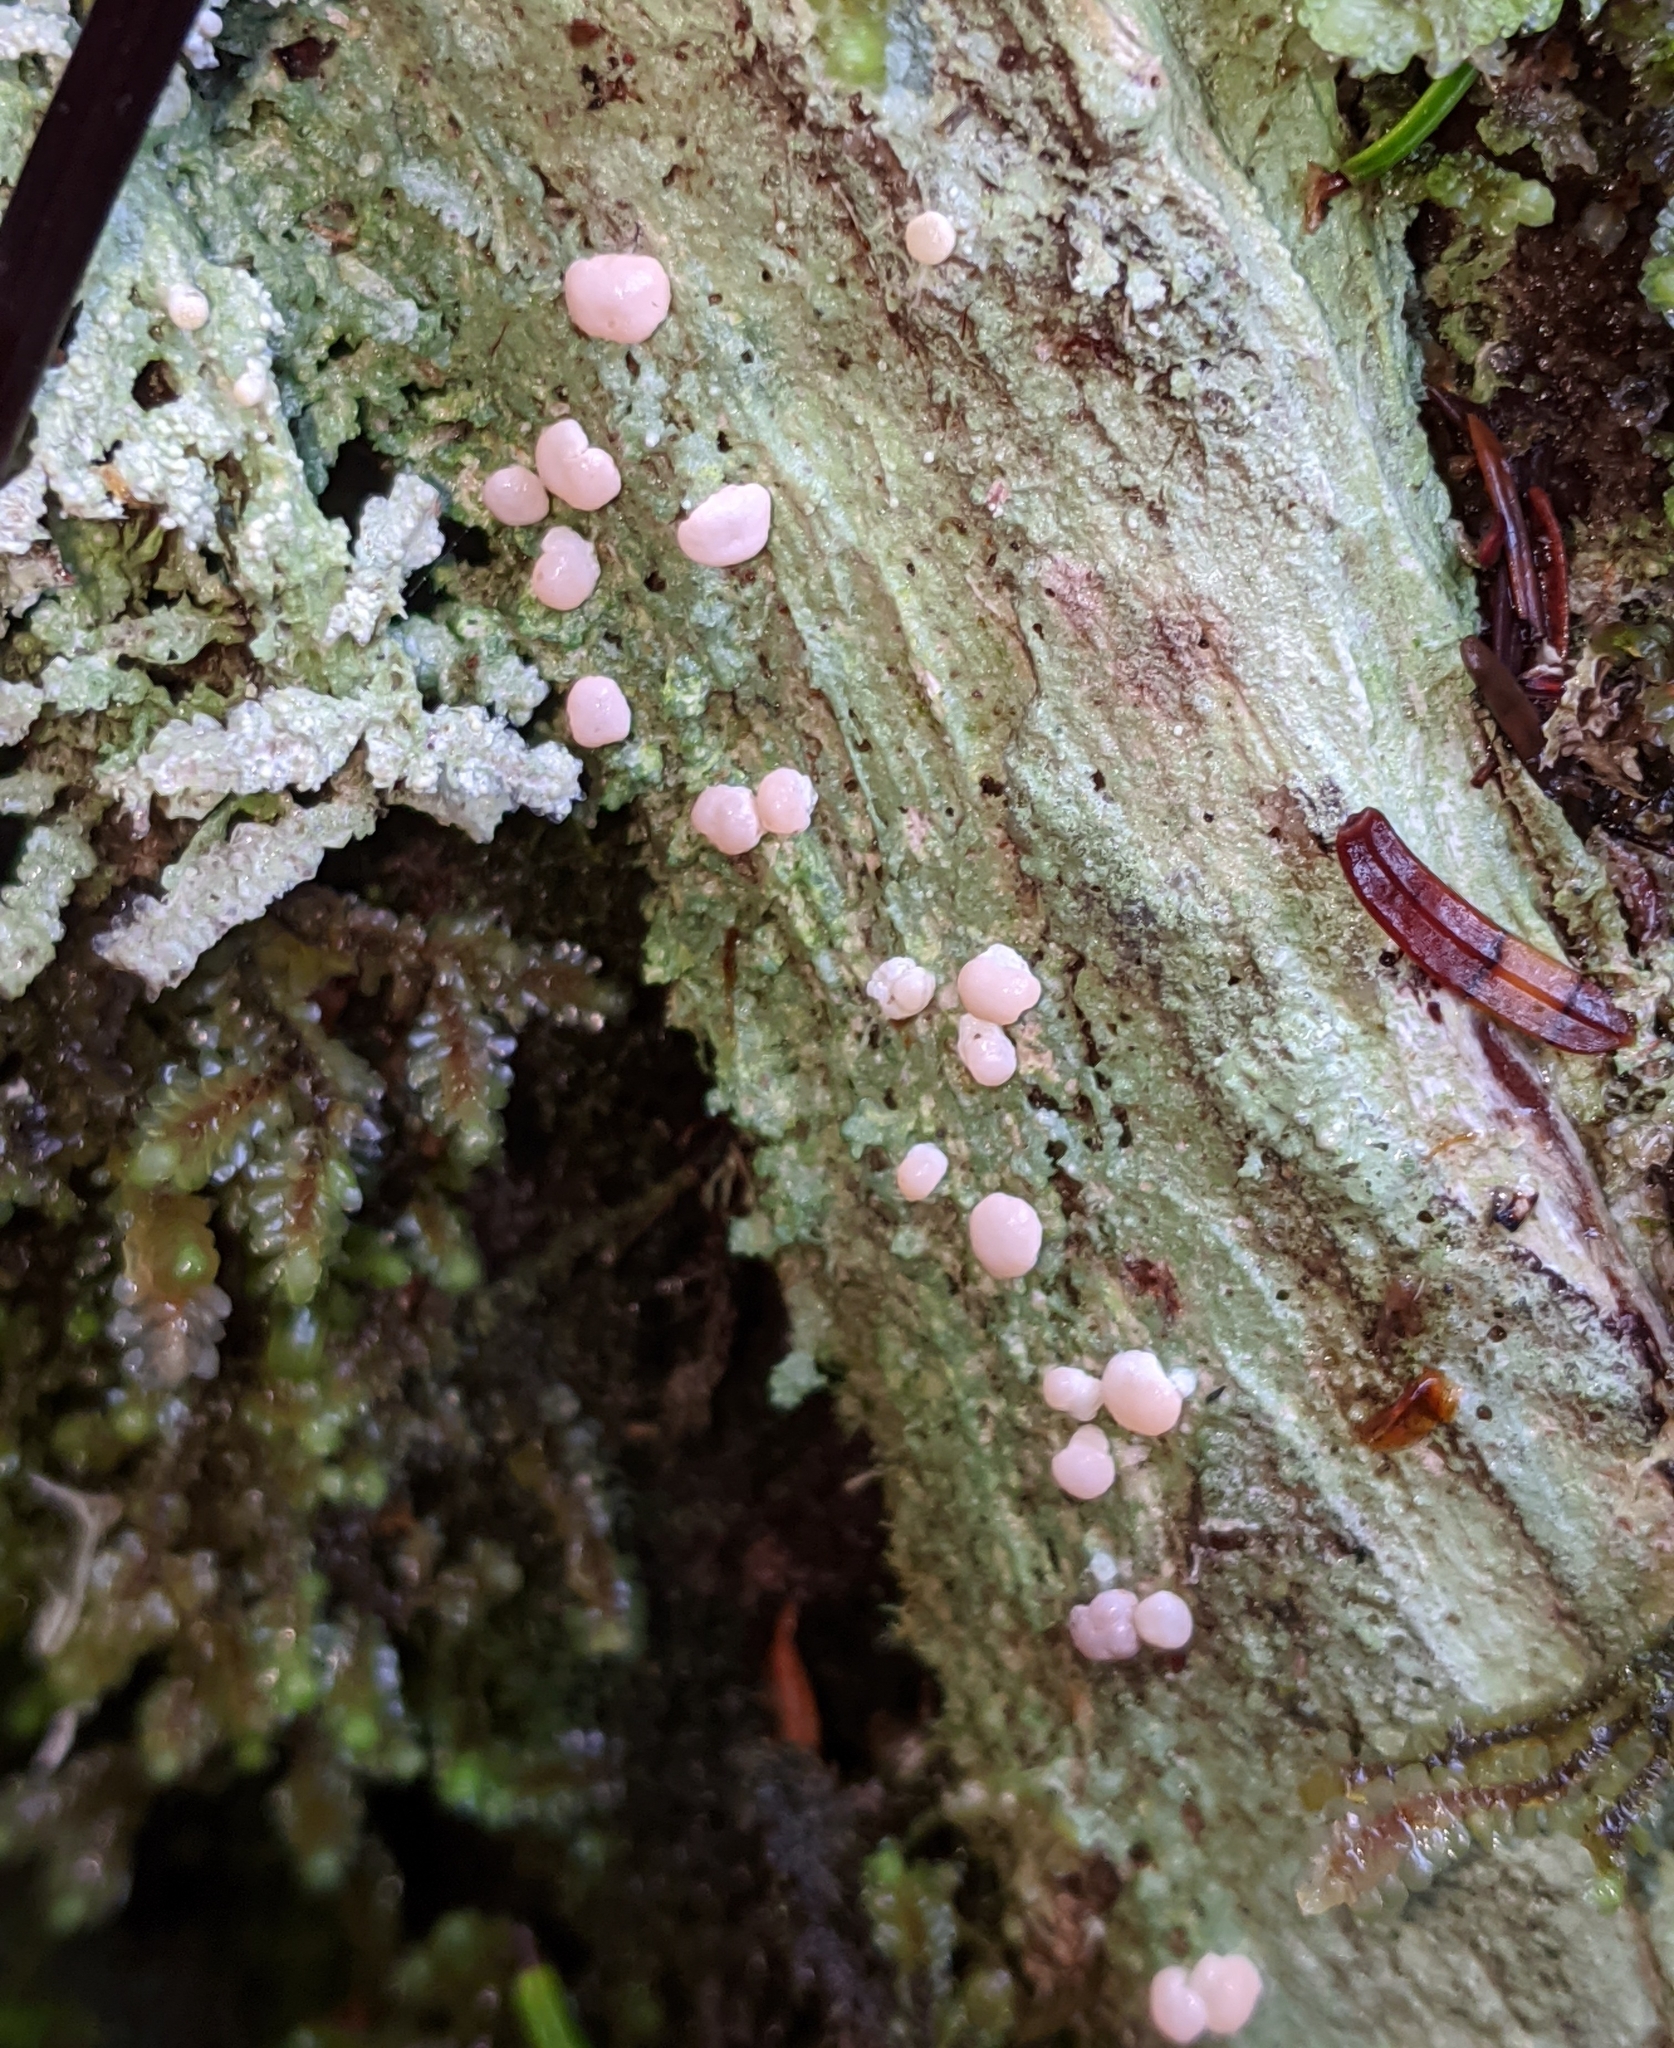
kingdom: Fungi
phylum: Ascomycota
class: Lecanoromycetes
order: Pertusariales
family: Icmadophilaceae
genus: Icmadophila
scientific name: Icmadophila ericetorum
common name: Candy lichen
